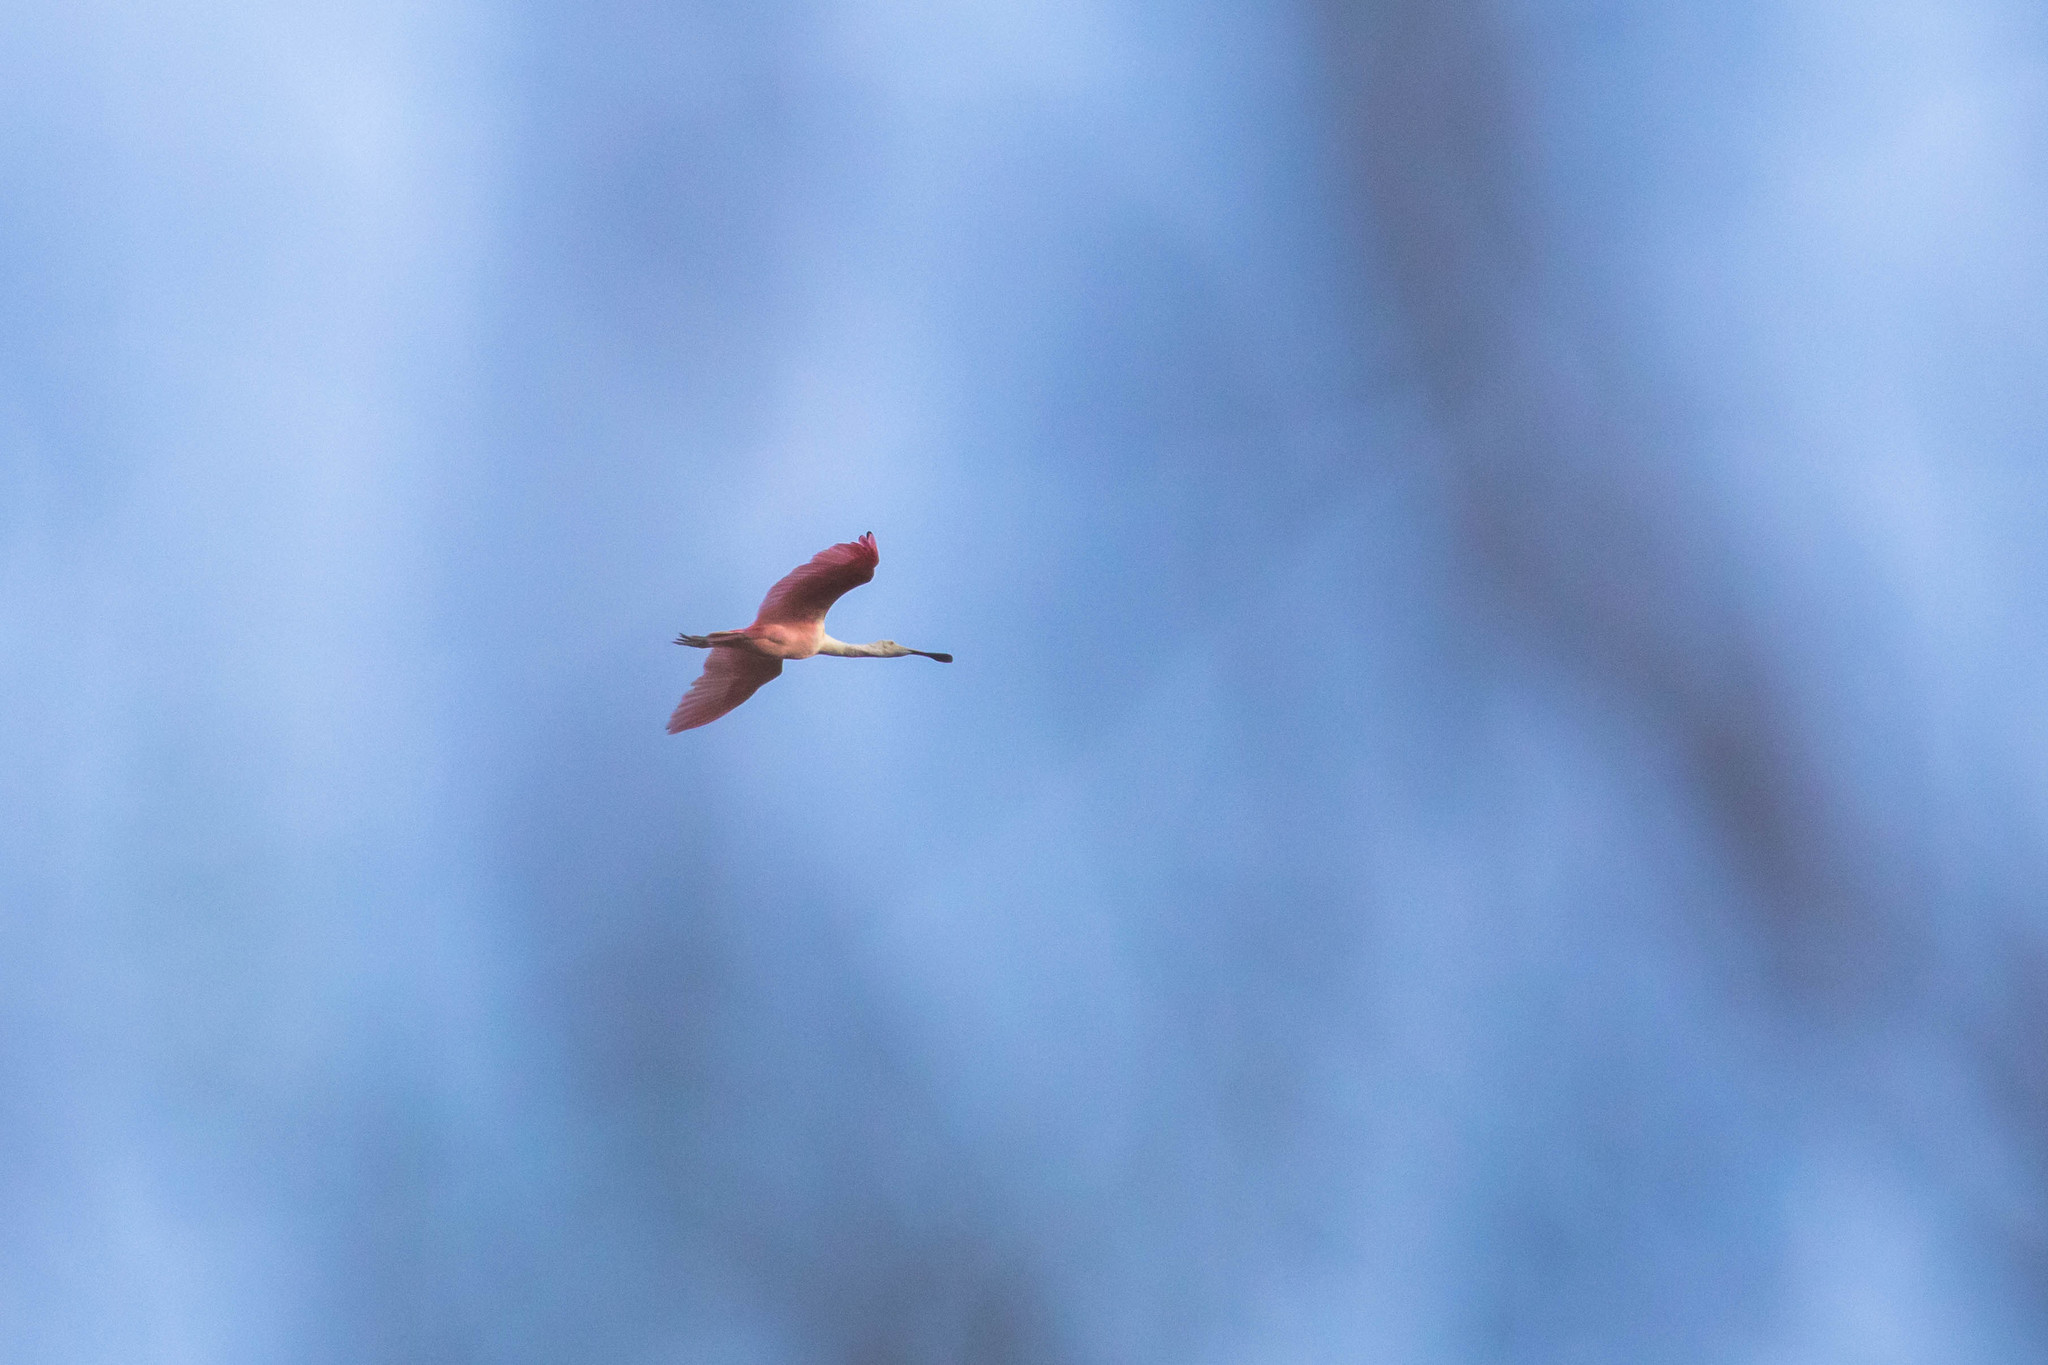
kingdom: Animalia
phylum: Chordata
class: Aves
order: Pelecaniformes
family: Threskiornithidae
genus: Platalea
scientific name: Platalea ajaja
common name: Roseate spoonbill
